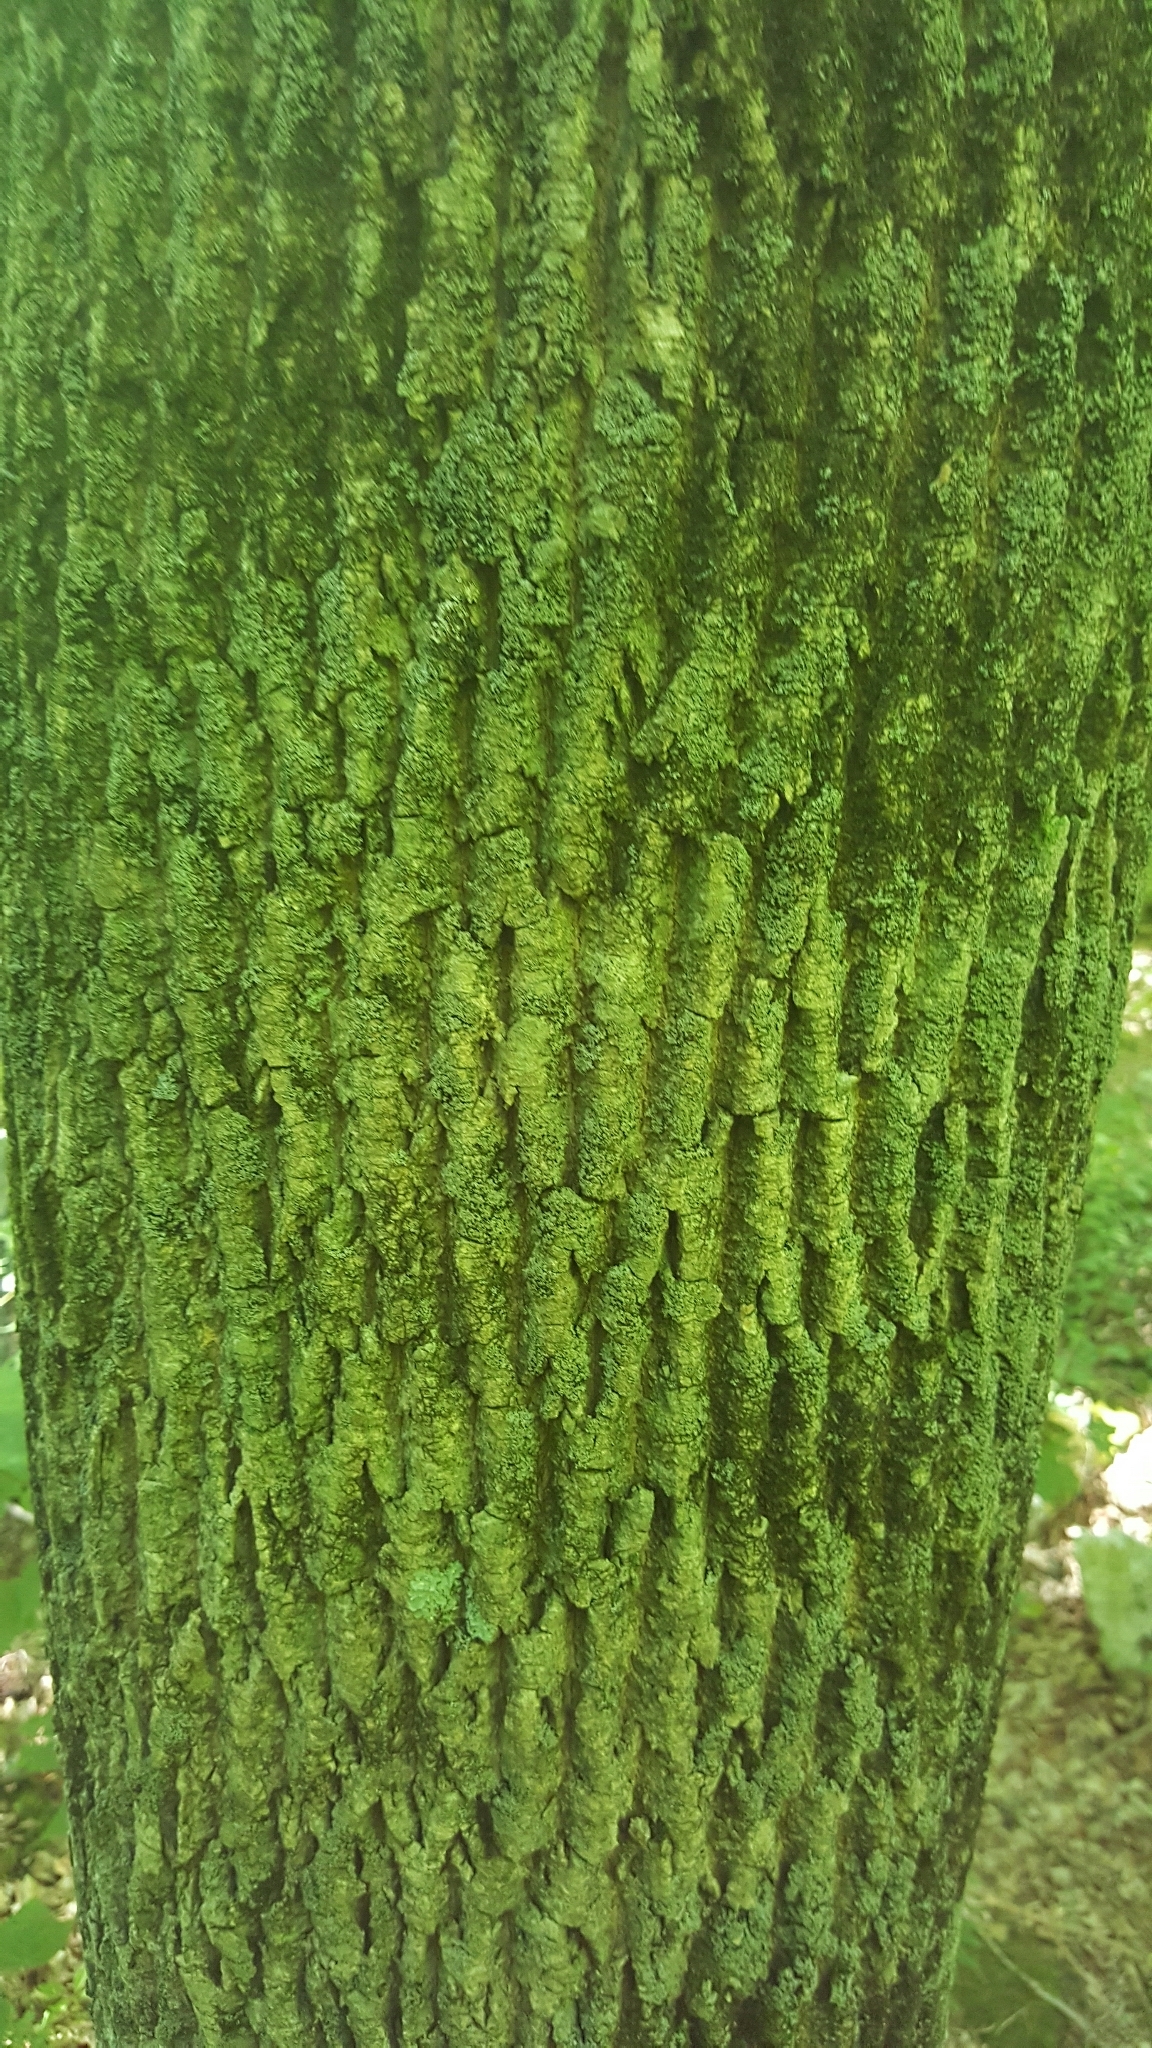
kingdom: Plantae
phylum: Tracheophyta
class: Magnoliopsida
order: Lamiales
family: Oleaceae
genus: Fraxinus
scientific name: Fraxinus americana
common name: White ash
